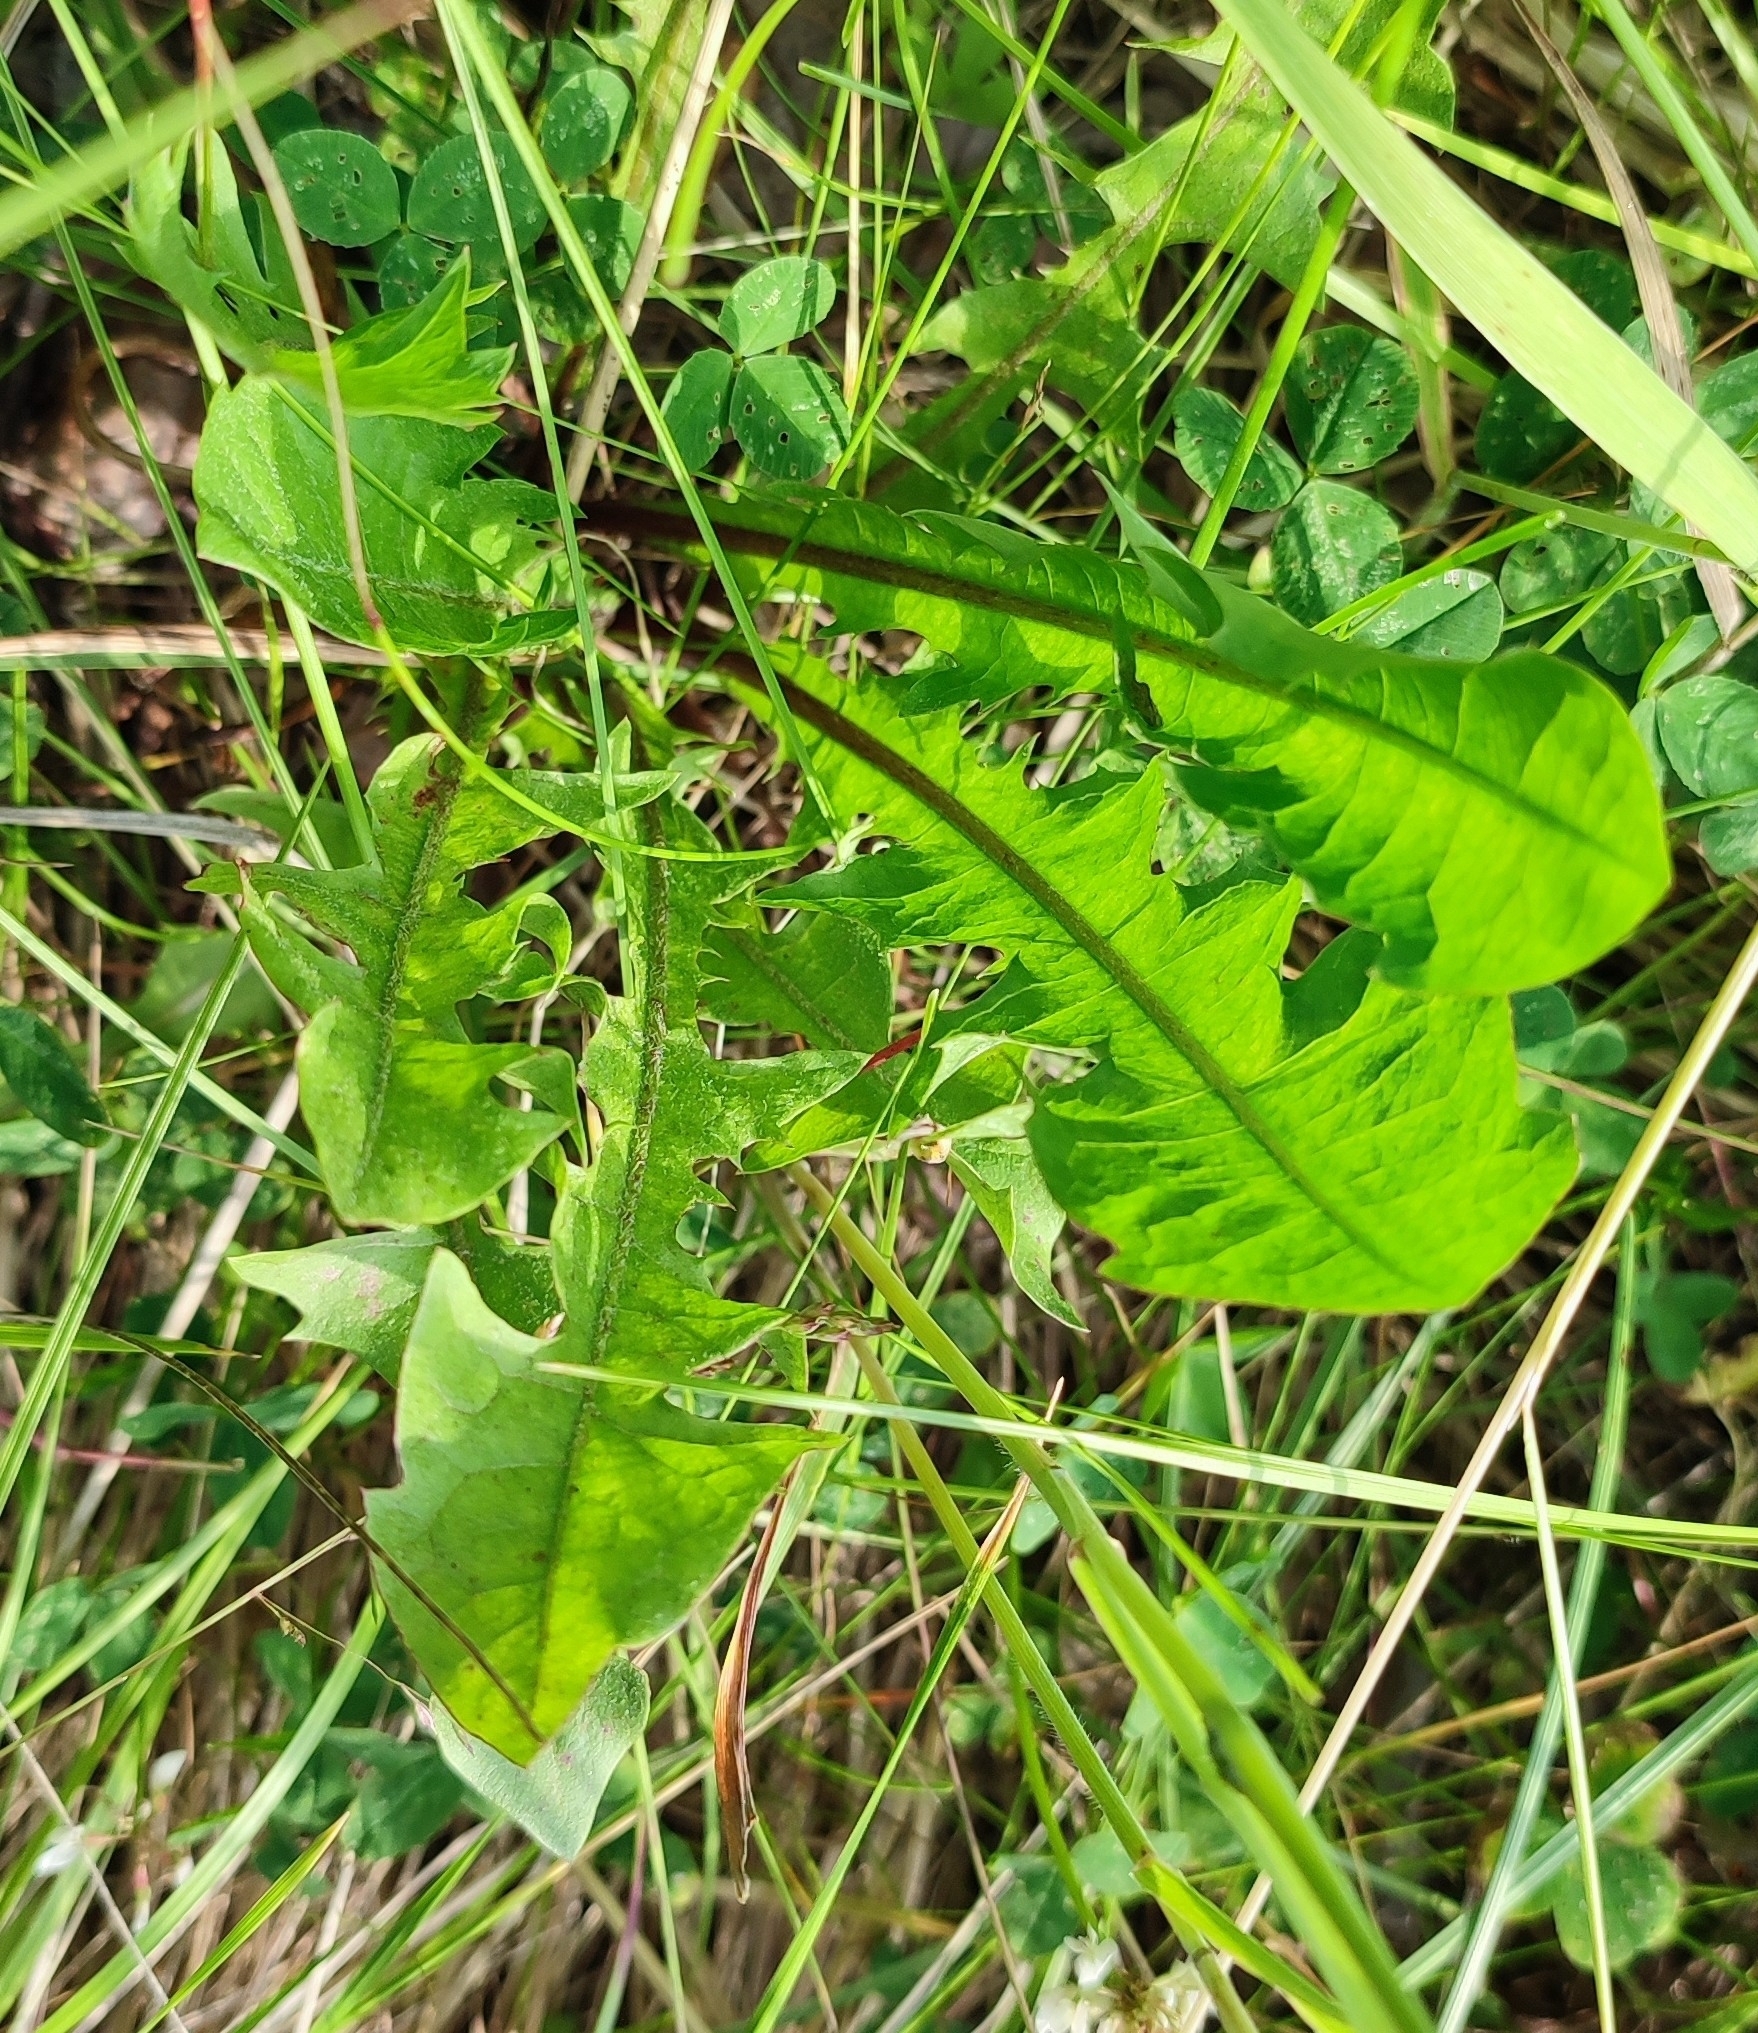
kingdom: Plantae
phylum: Tracheophyta
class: Magnoliopsida
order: Asterales
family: Asteraceae
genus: Taraxacum
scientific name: Taraxacum officinale
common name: Common dandelion
